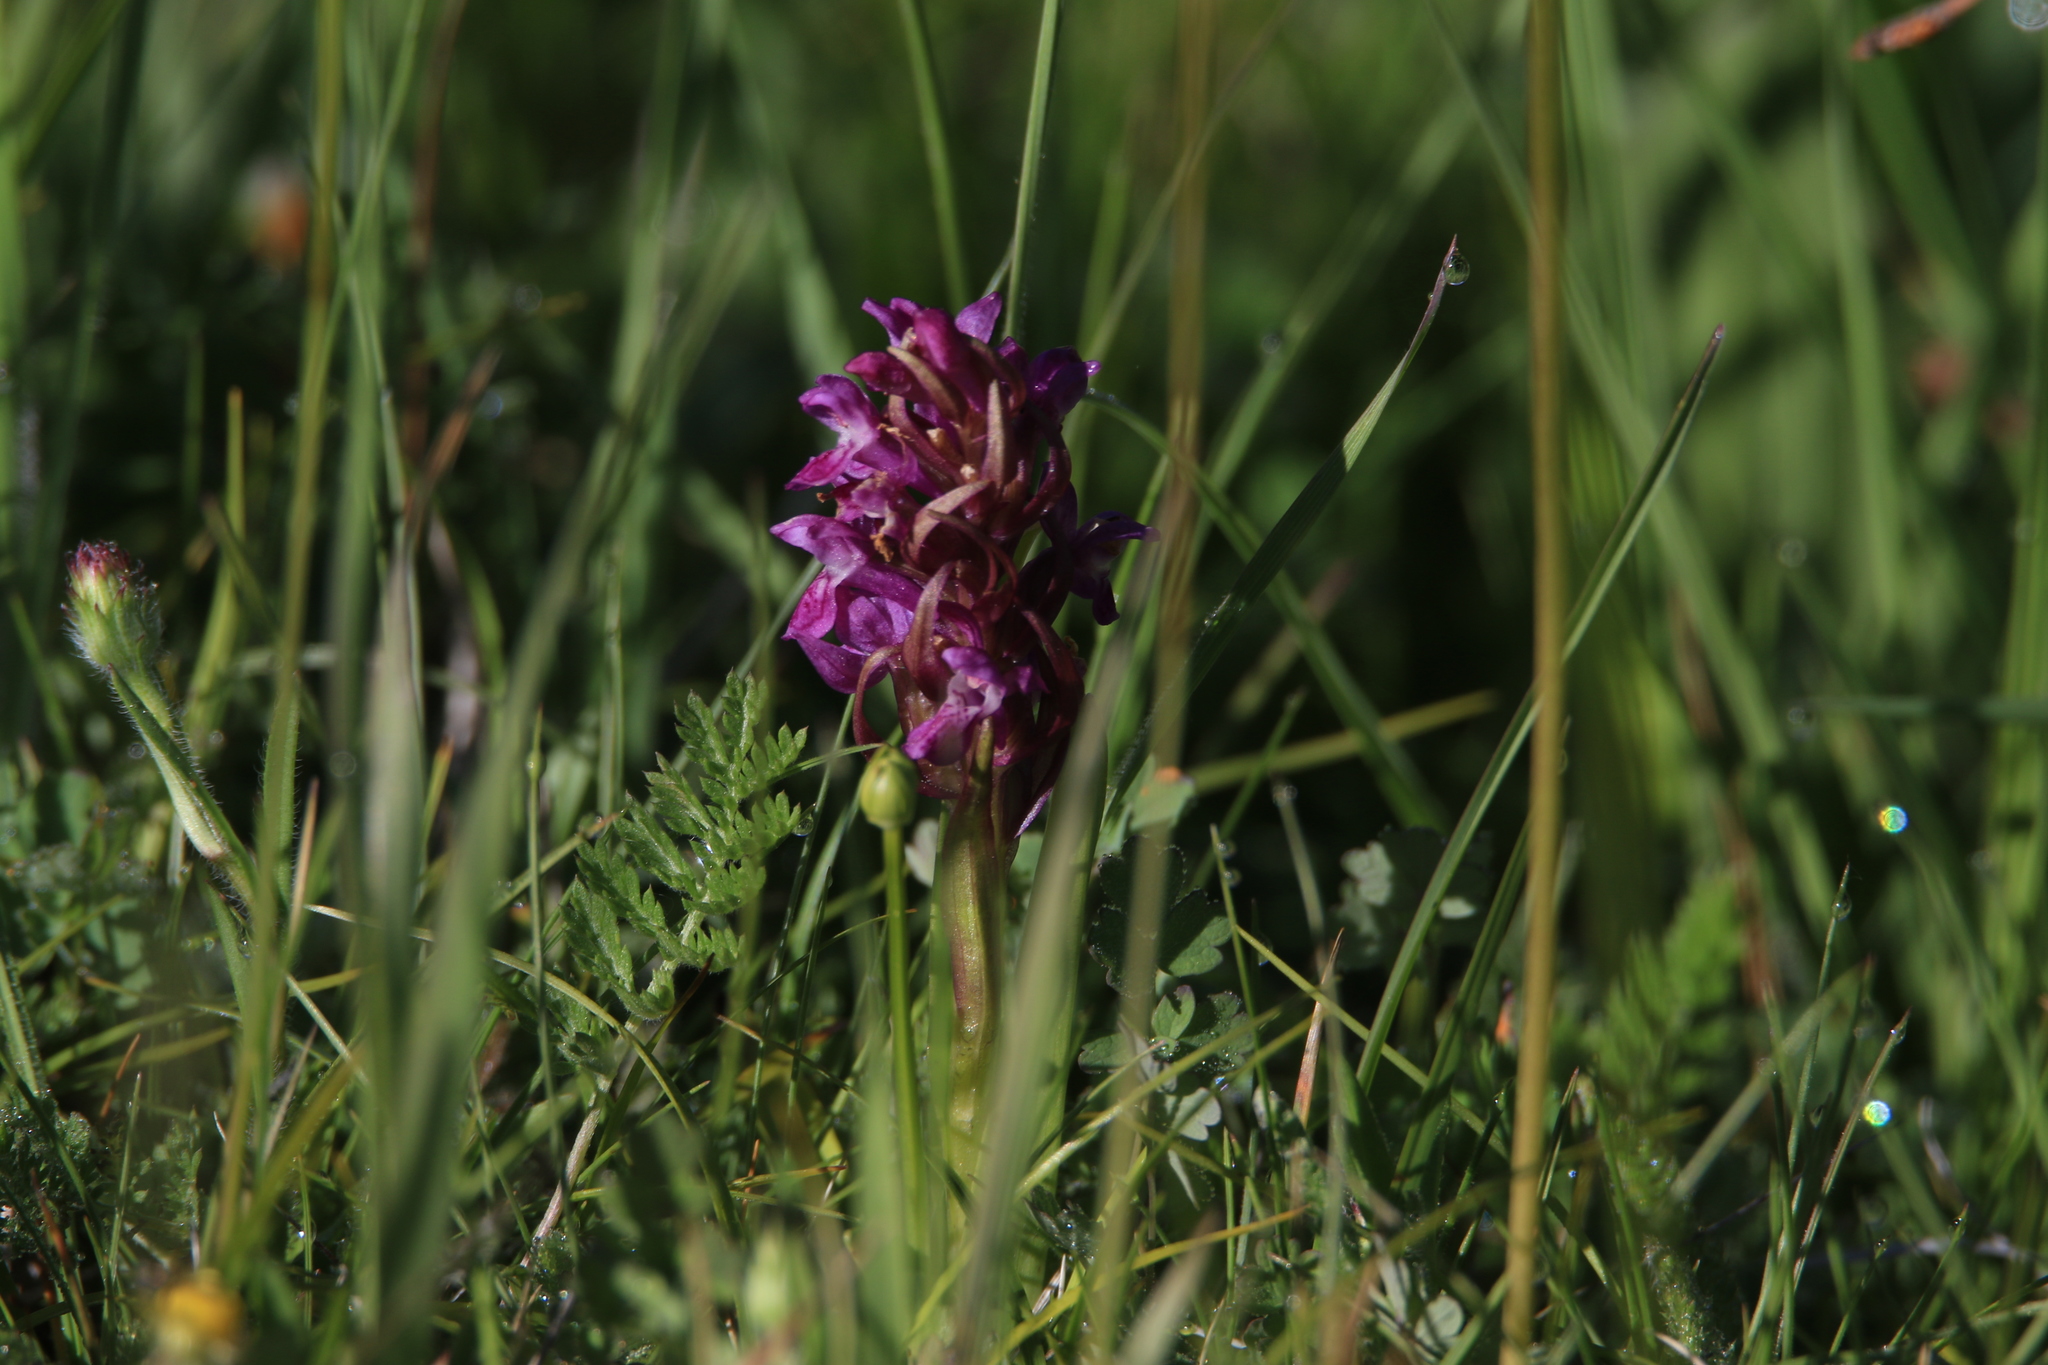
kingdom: Plantae
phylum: Tracheophyta
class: Liliopsida
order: Asparagales
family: Orchidaceae
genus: Dactylorhiza
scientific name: Dactylorhiza incarnata
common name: Early marsh-orchid
